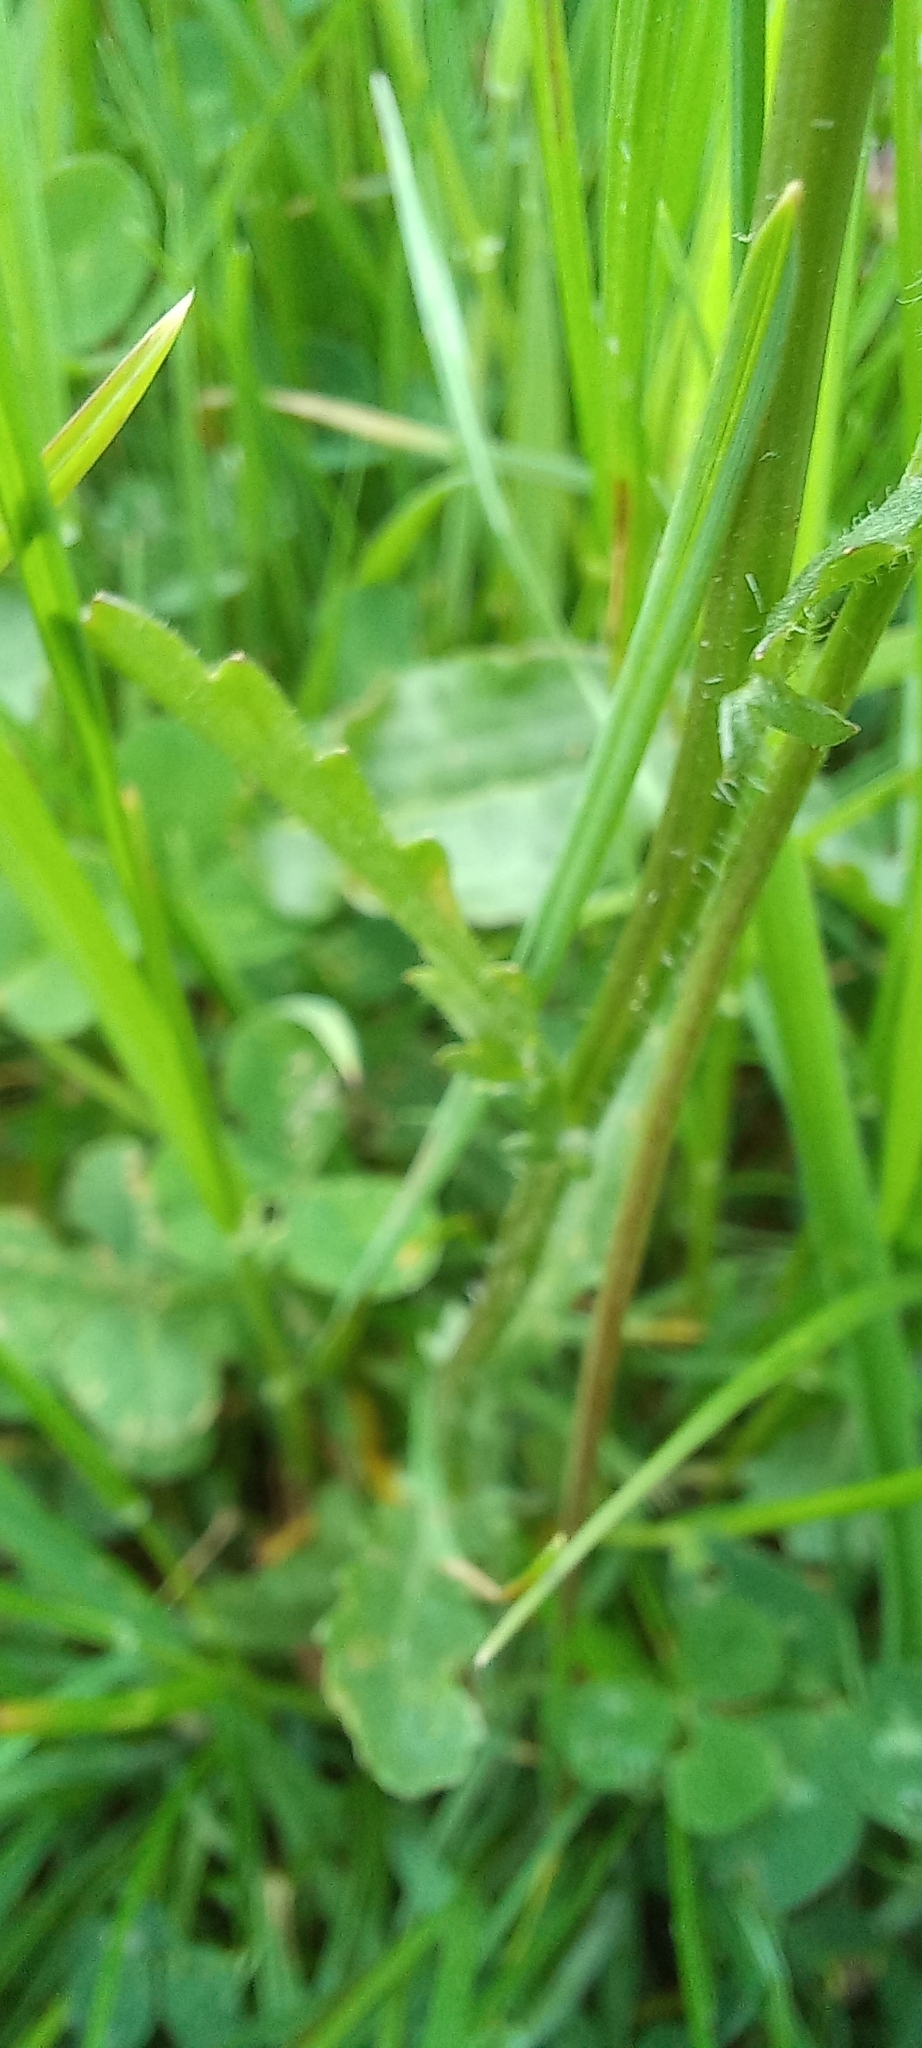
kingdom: Plantae
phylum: Tracheophyta
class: Magnoliopsida
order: Asterales
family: Asteraceae
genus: Leucanthemum
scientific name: Leucanthemum vulgare
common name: Oxeye daisy
